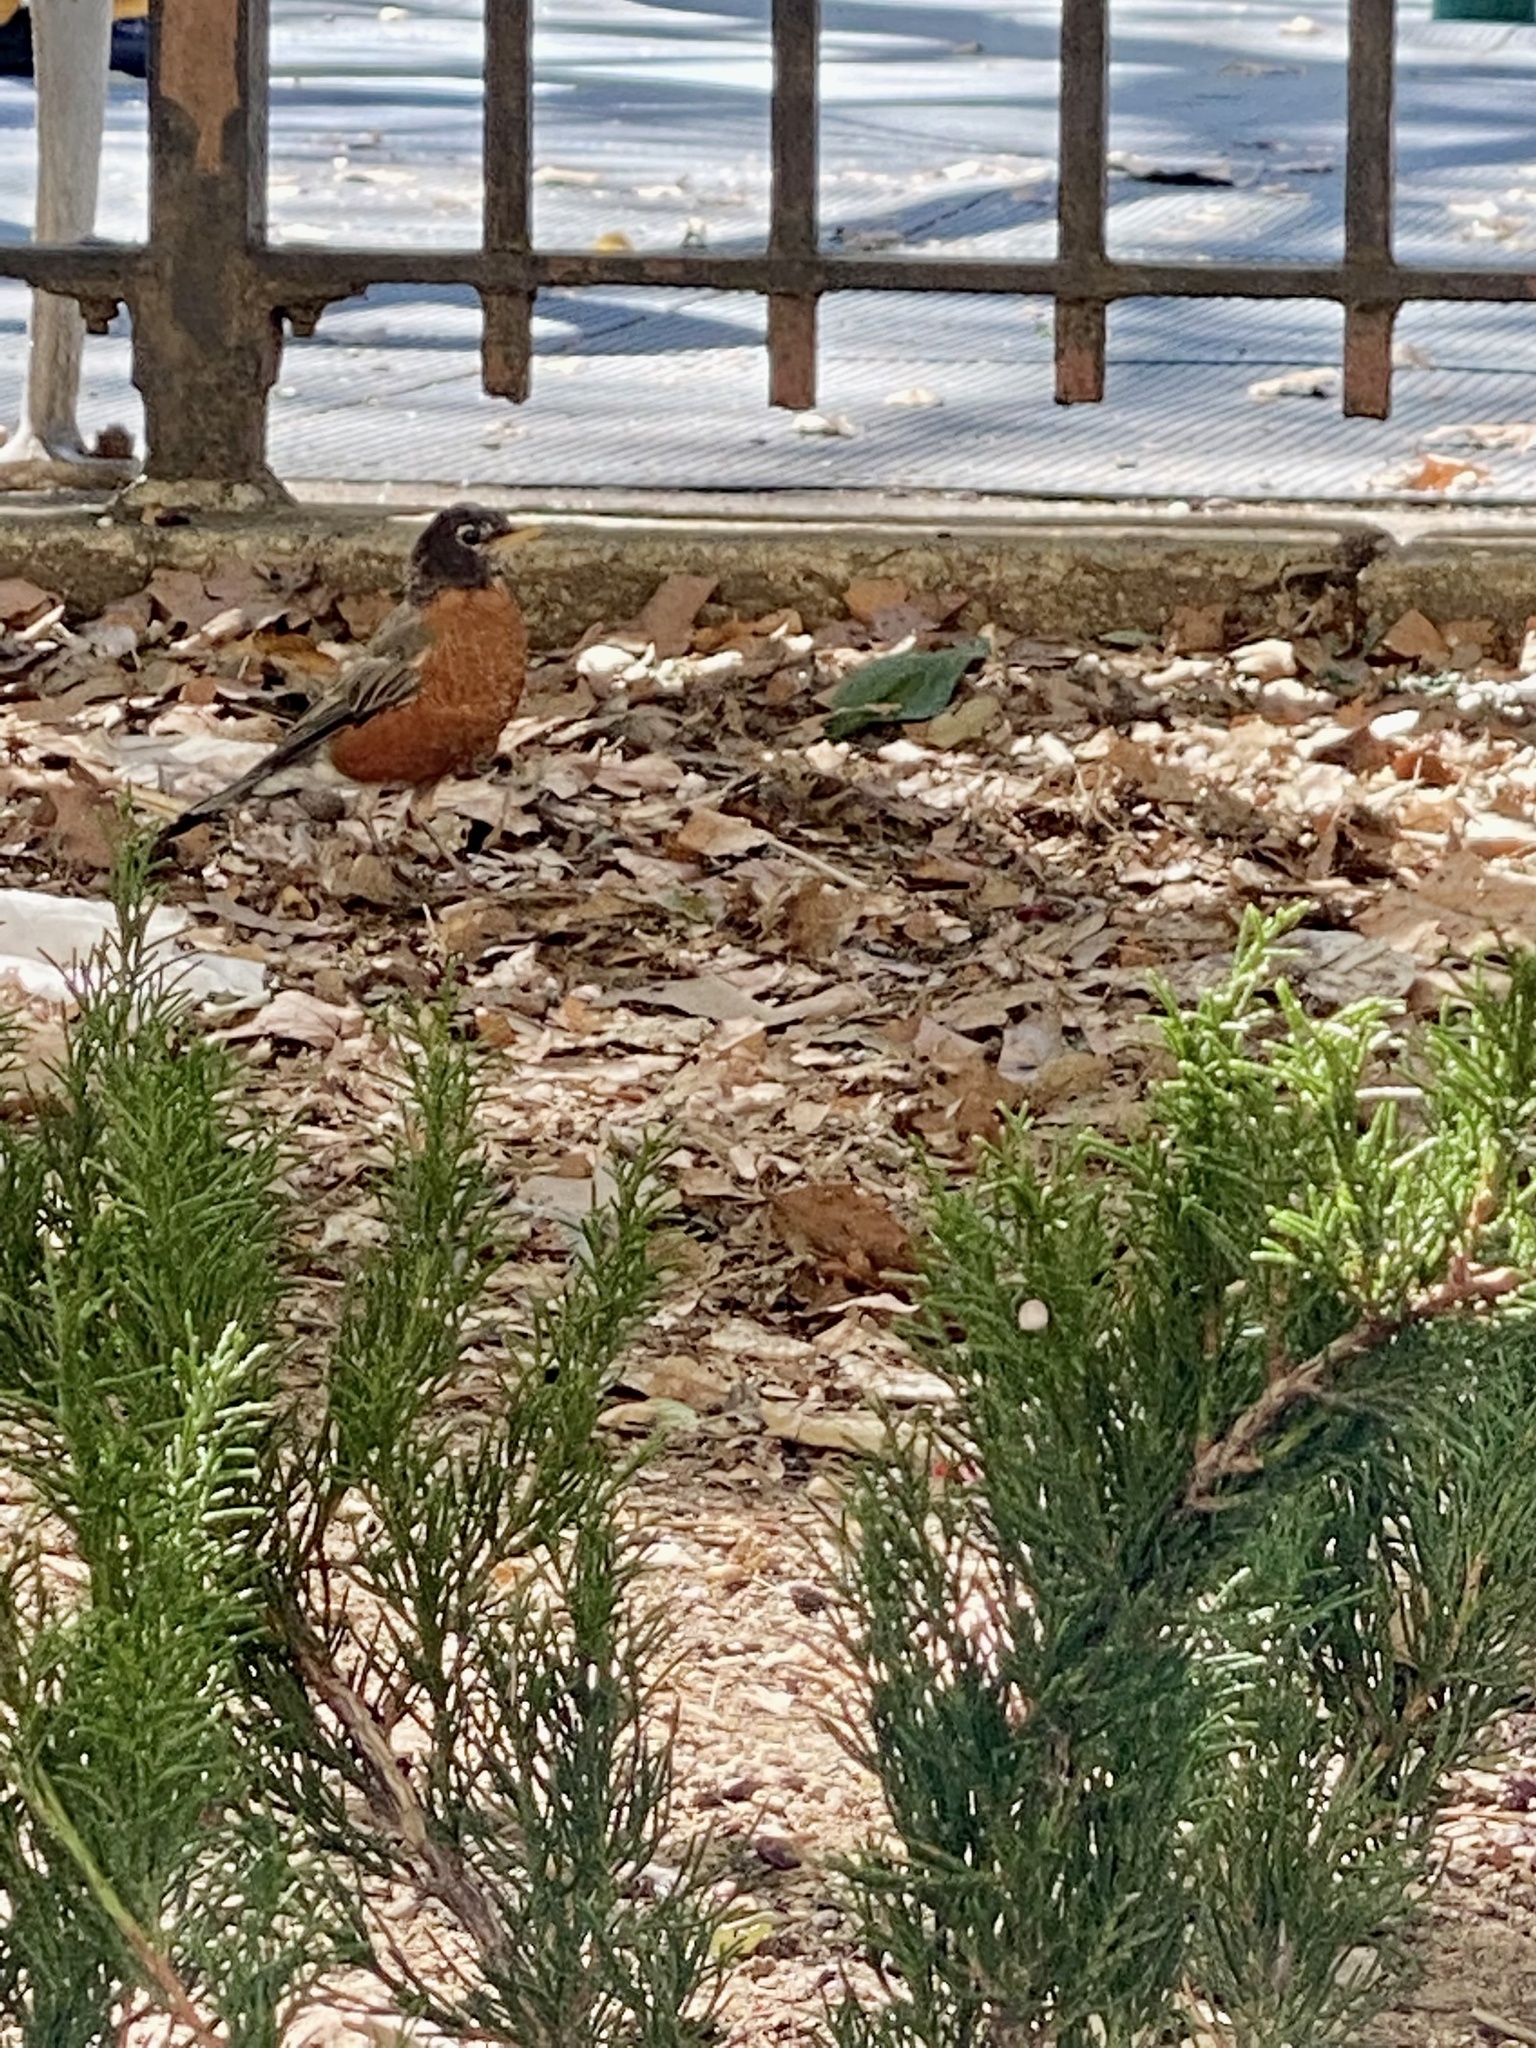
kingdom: Animalia
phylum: Chordata
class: Aves
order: Passeriformes
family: Turdidae
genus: Turdus
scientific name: Turdus migratorius
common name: American robin
